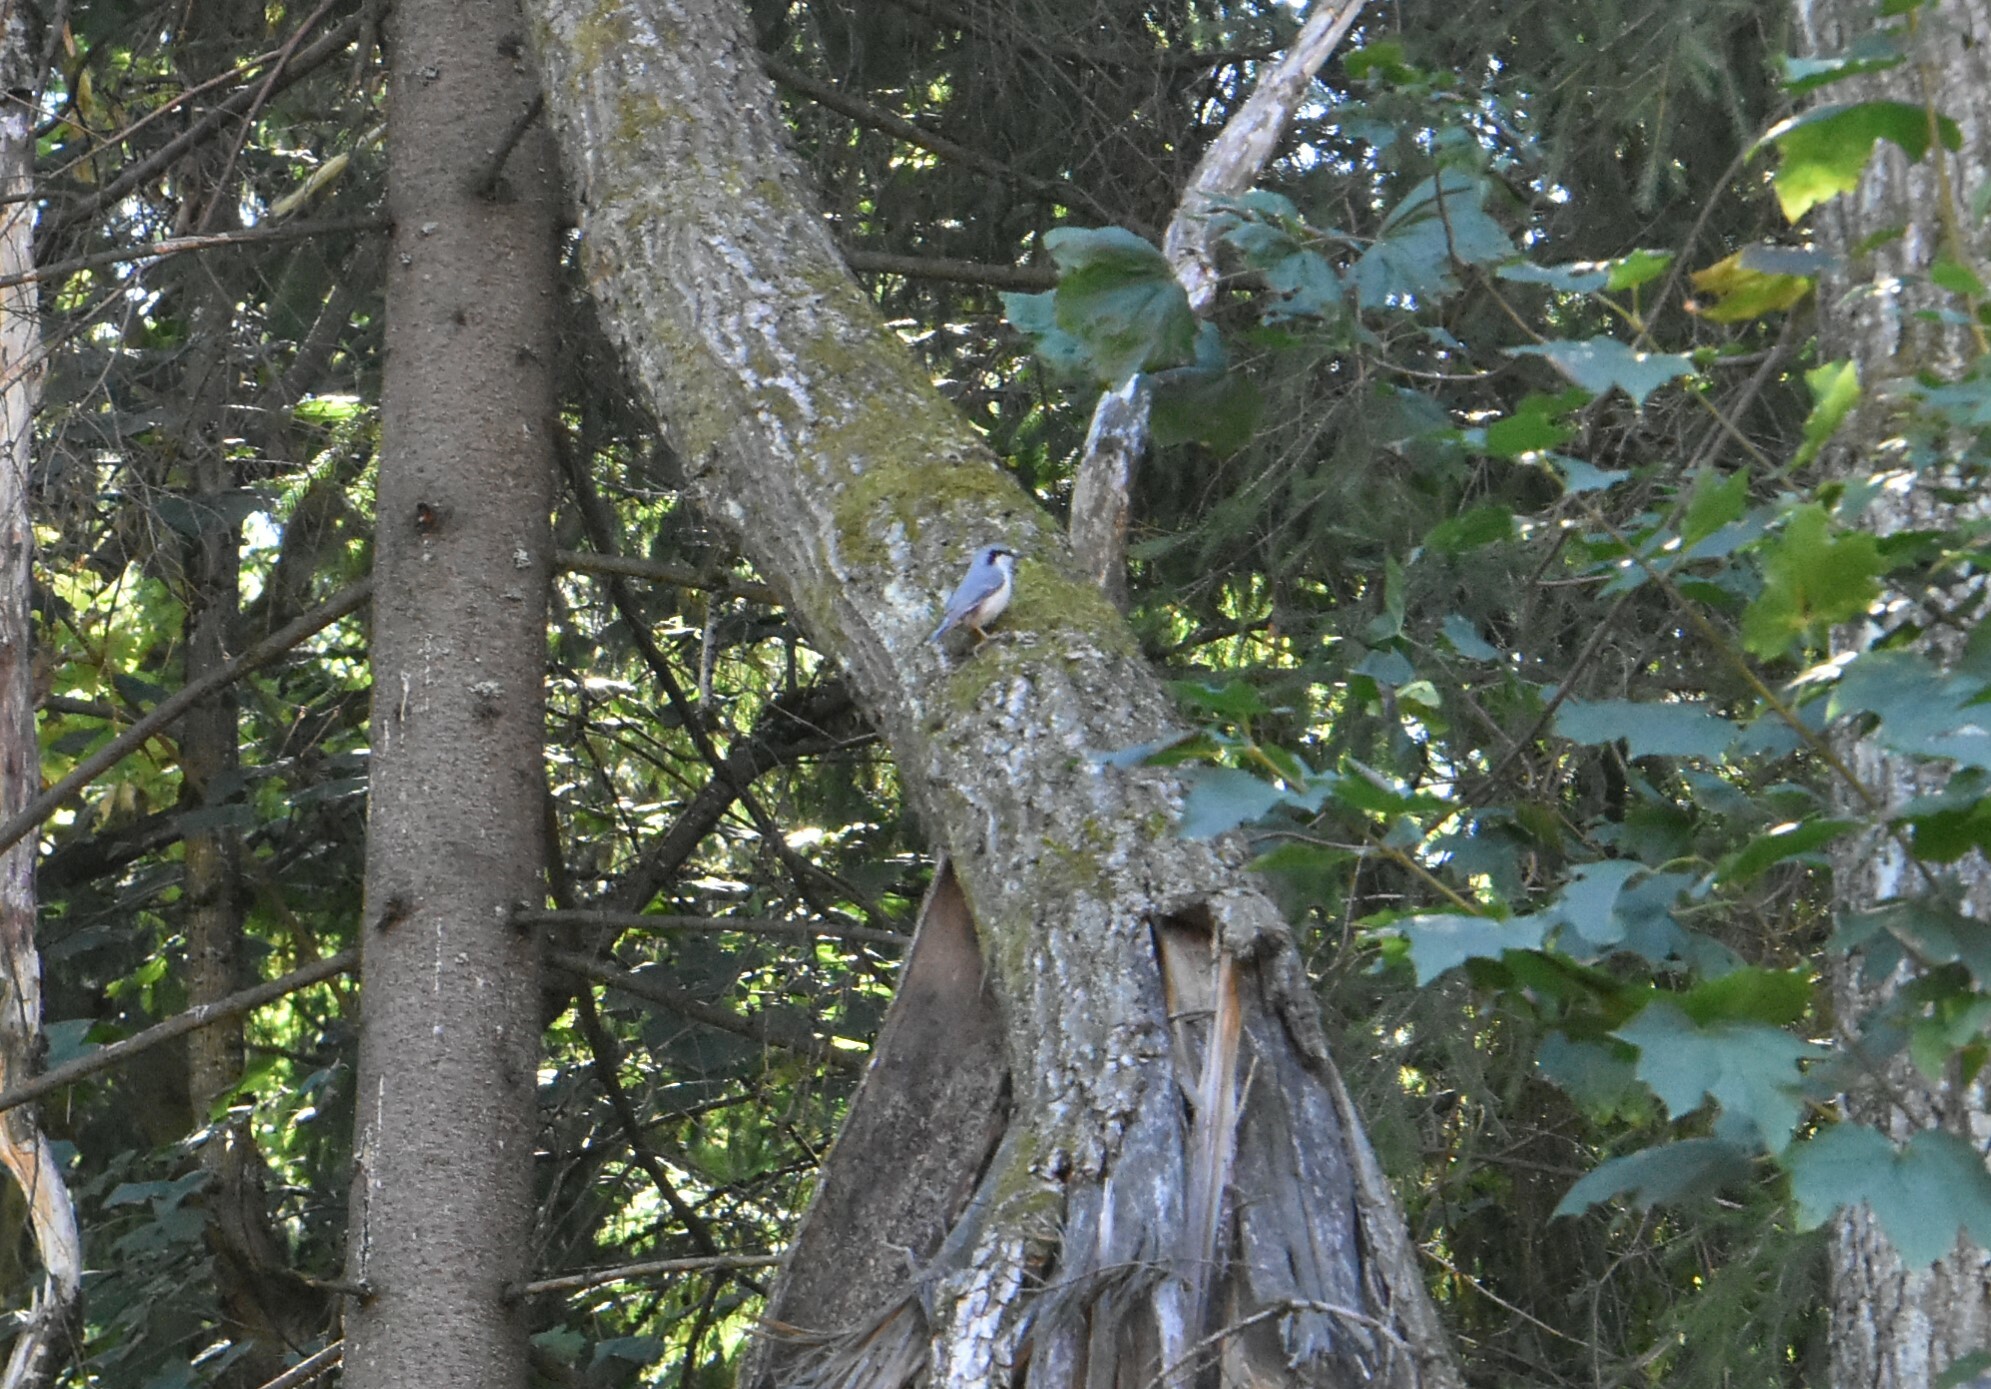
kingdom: Animalia
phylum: Chordata
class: Aves
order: Passeriformes
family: Sittidae
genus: Sitta
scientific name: Sitta europaea
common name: Eurasian nuthatch
